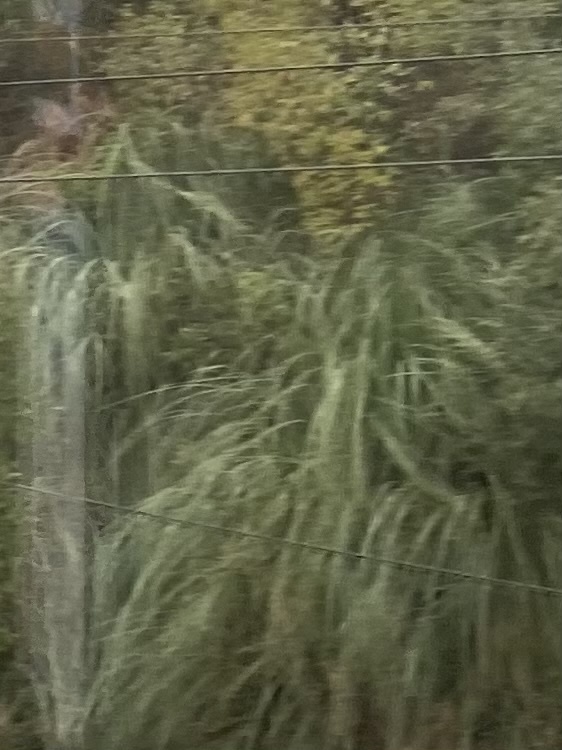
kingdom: Plantae
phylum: Tracheophyta
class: Liliopsida
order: Poales
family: Poaceae
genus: Cortaderia
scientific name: Cortaderia selloana
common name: Uruguayan pampas grass
